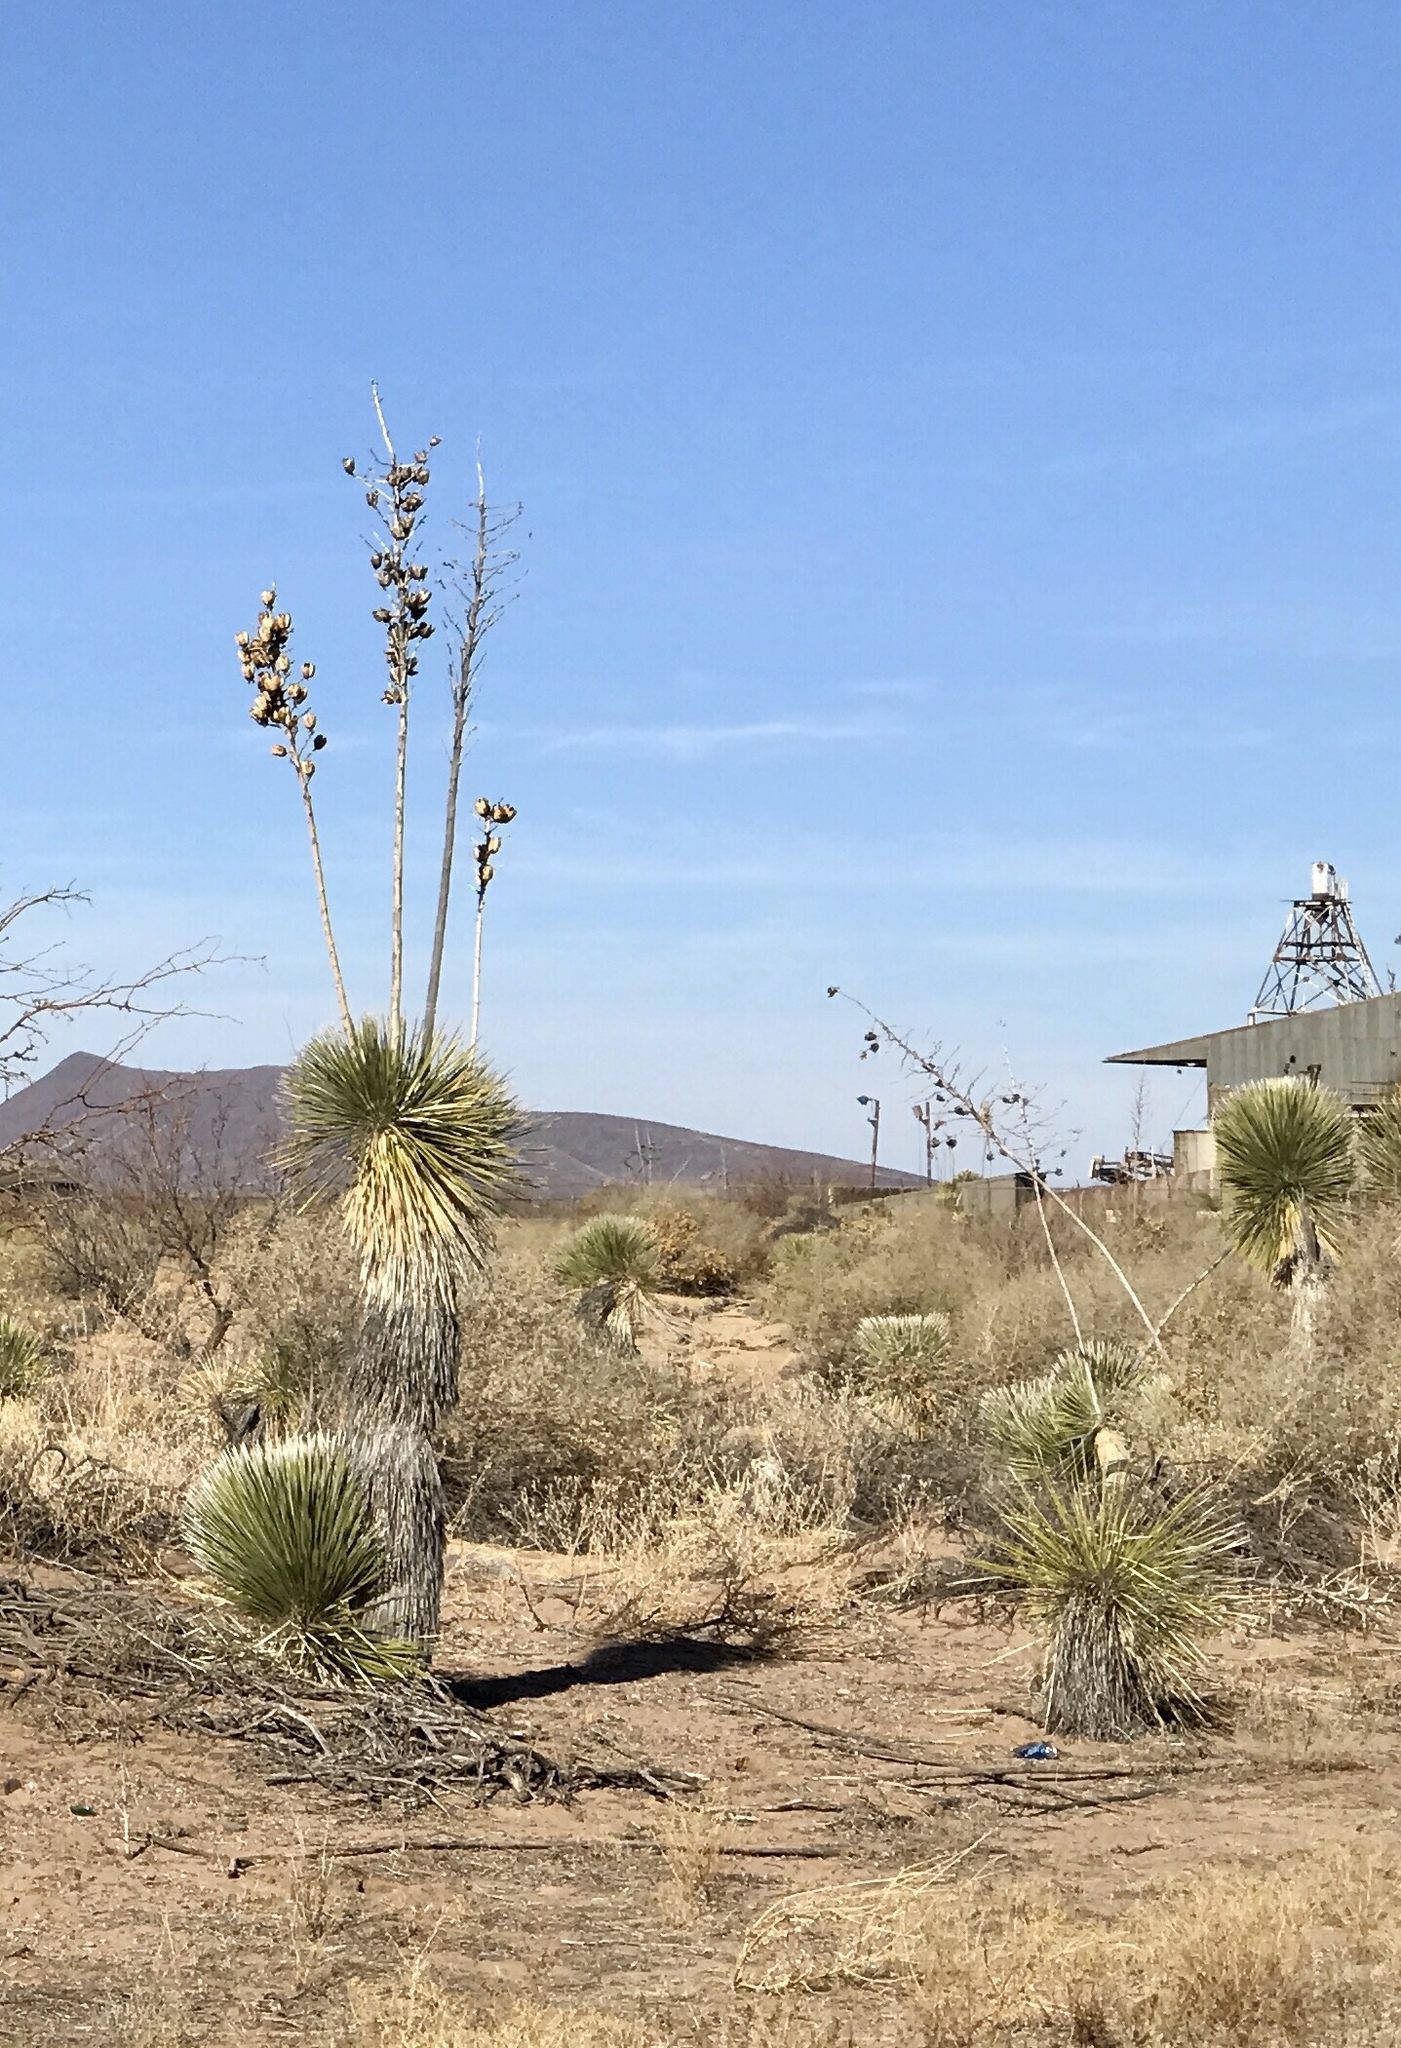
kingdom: Plantae
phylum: Tracheophyta
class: Liliopsida
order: Asparagales
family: Asparagaceae
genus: Yucca
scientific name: Yucca elata
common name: Palmella
